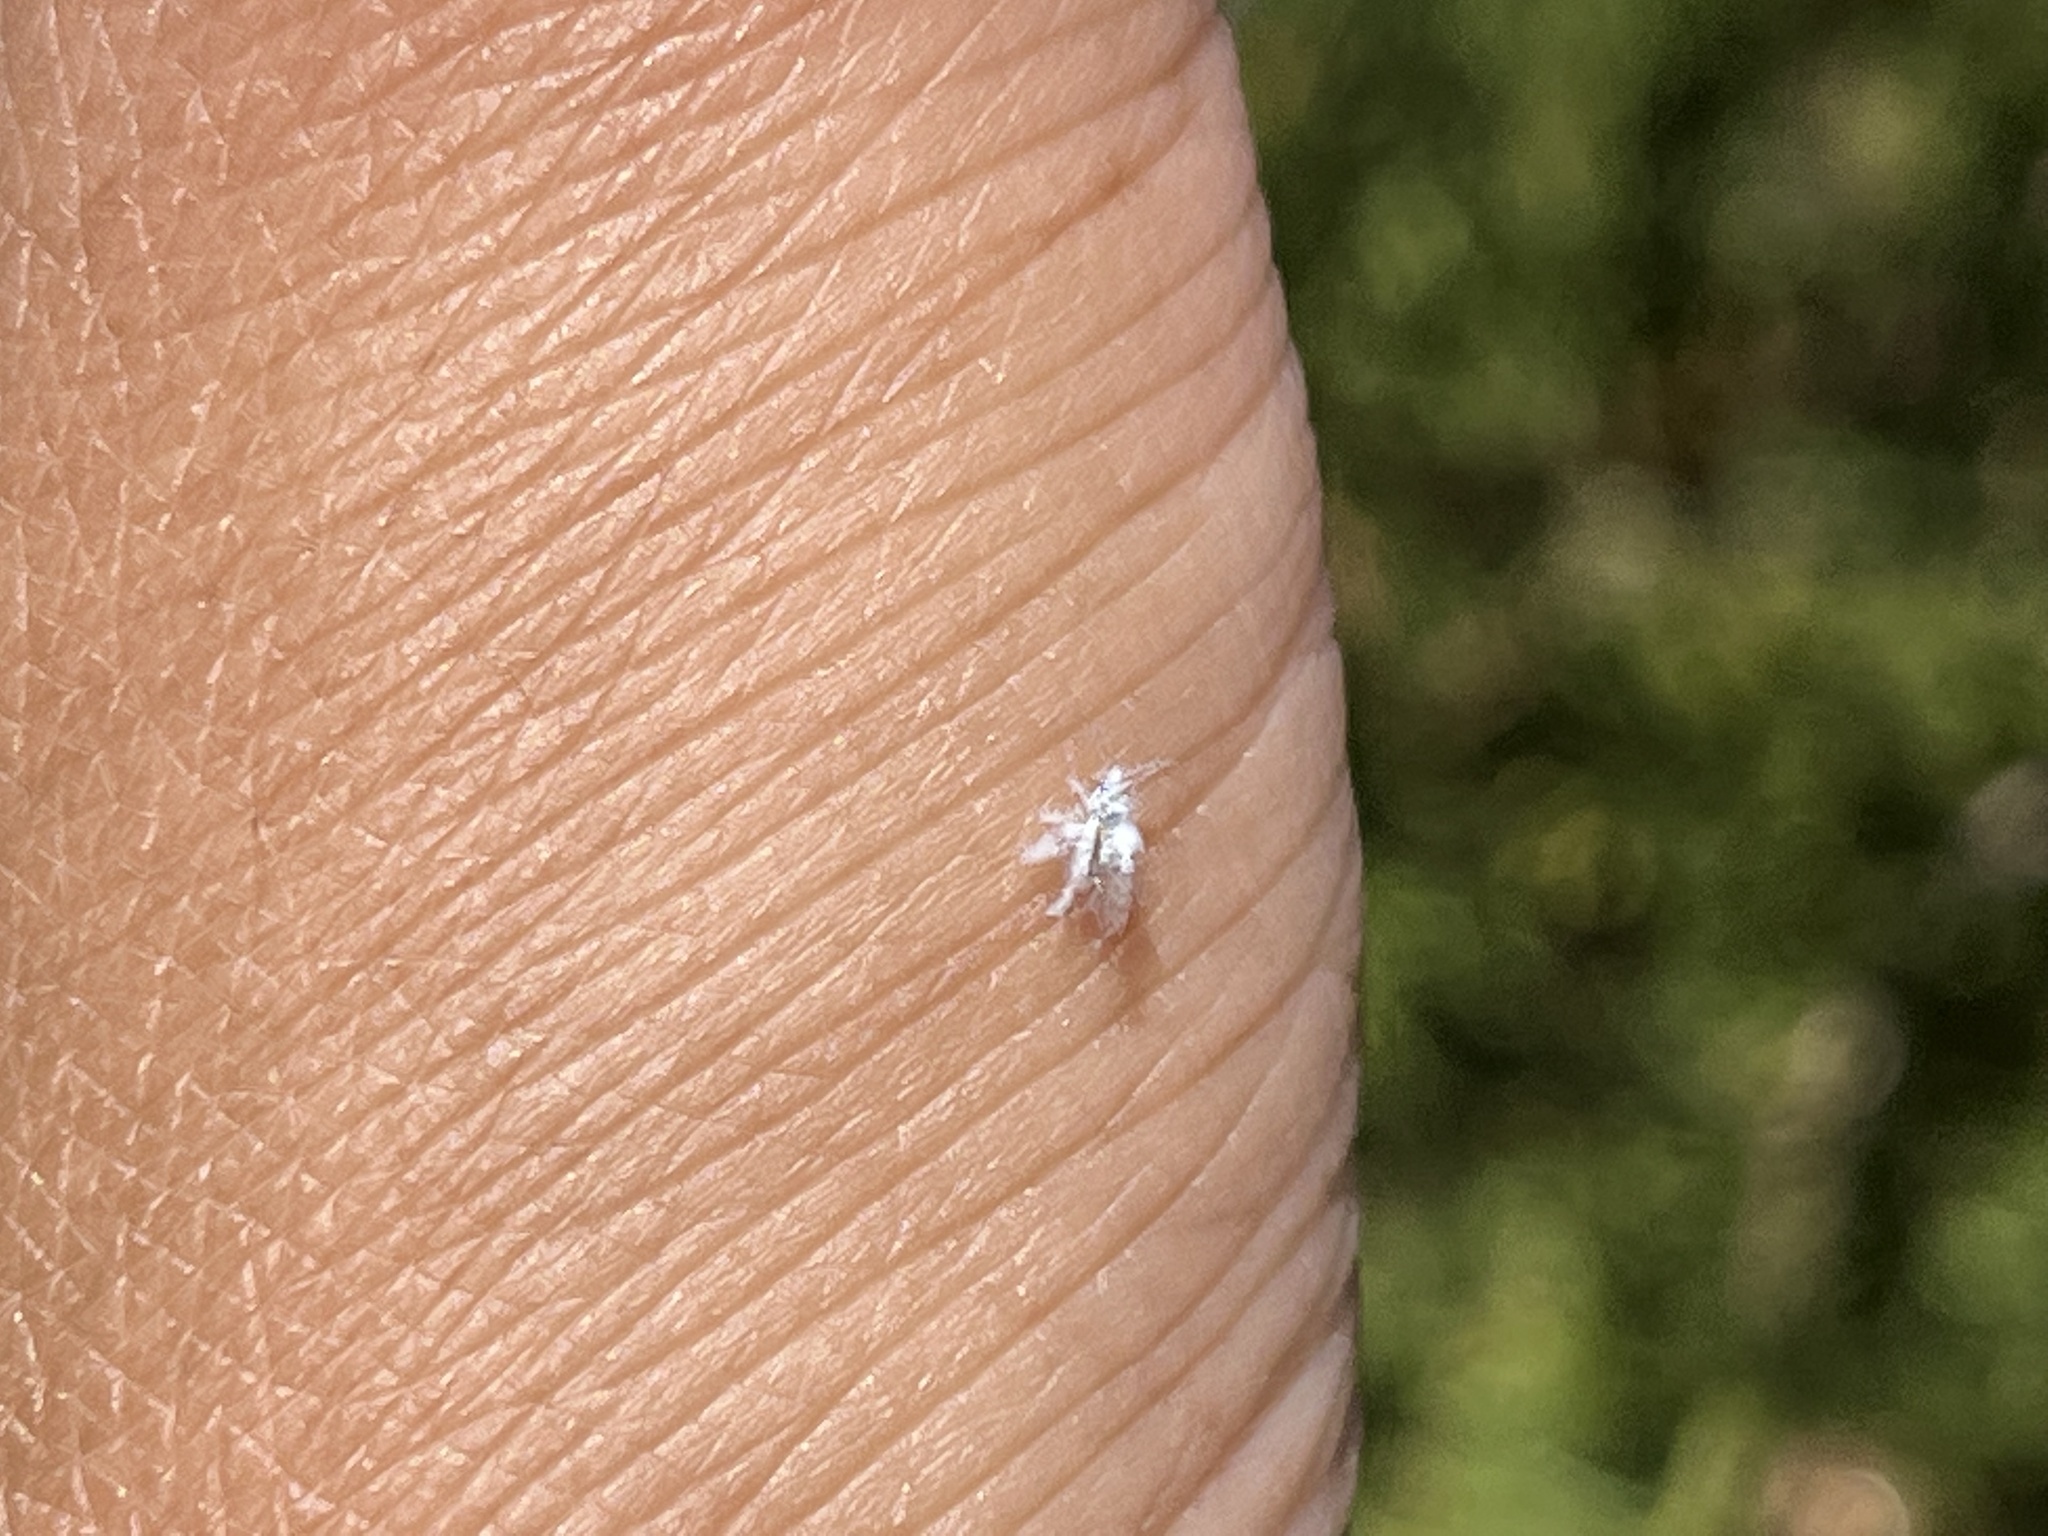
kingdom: Animalia
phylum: Arthropoda
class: Insecta
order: Hemiptera
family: Aphididae
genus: Shivaphis
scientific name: Shivaphis celti
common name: Asian wooly hackberry aphid
